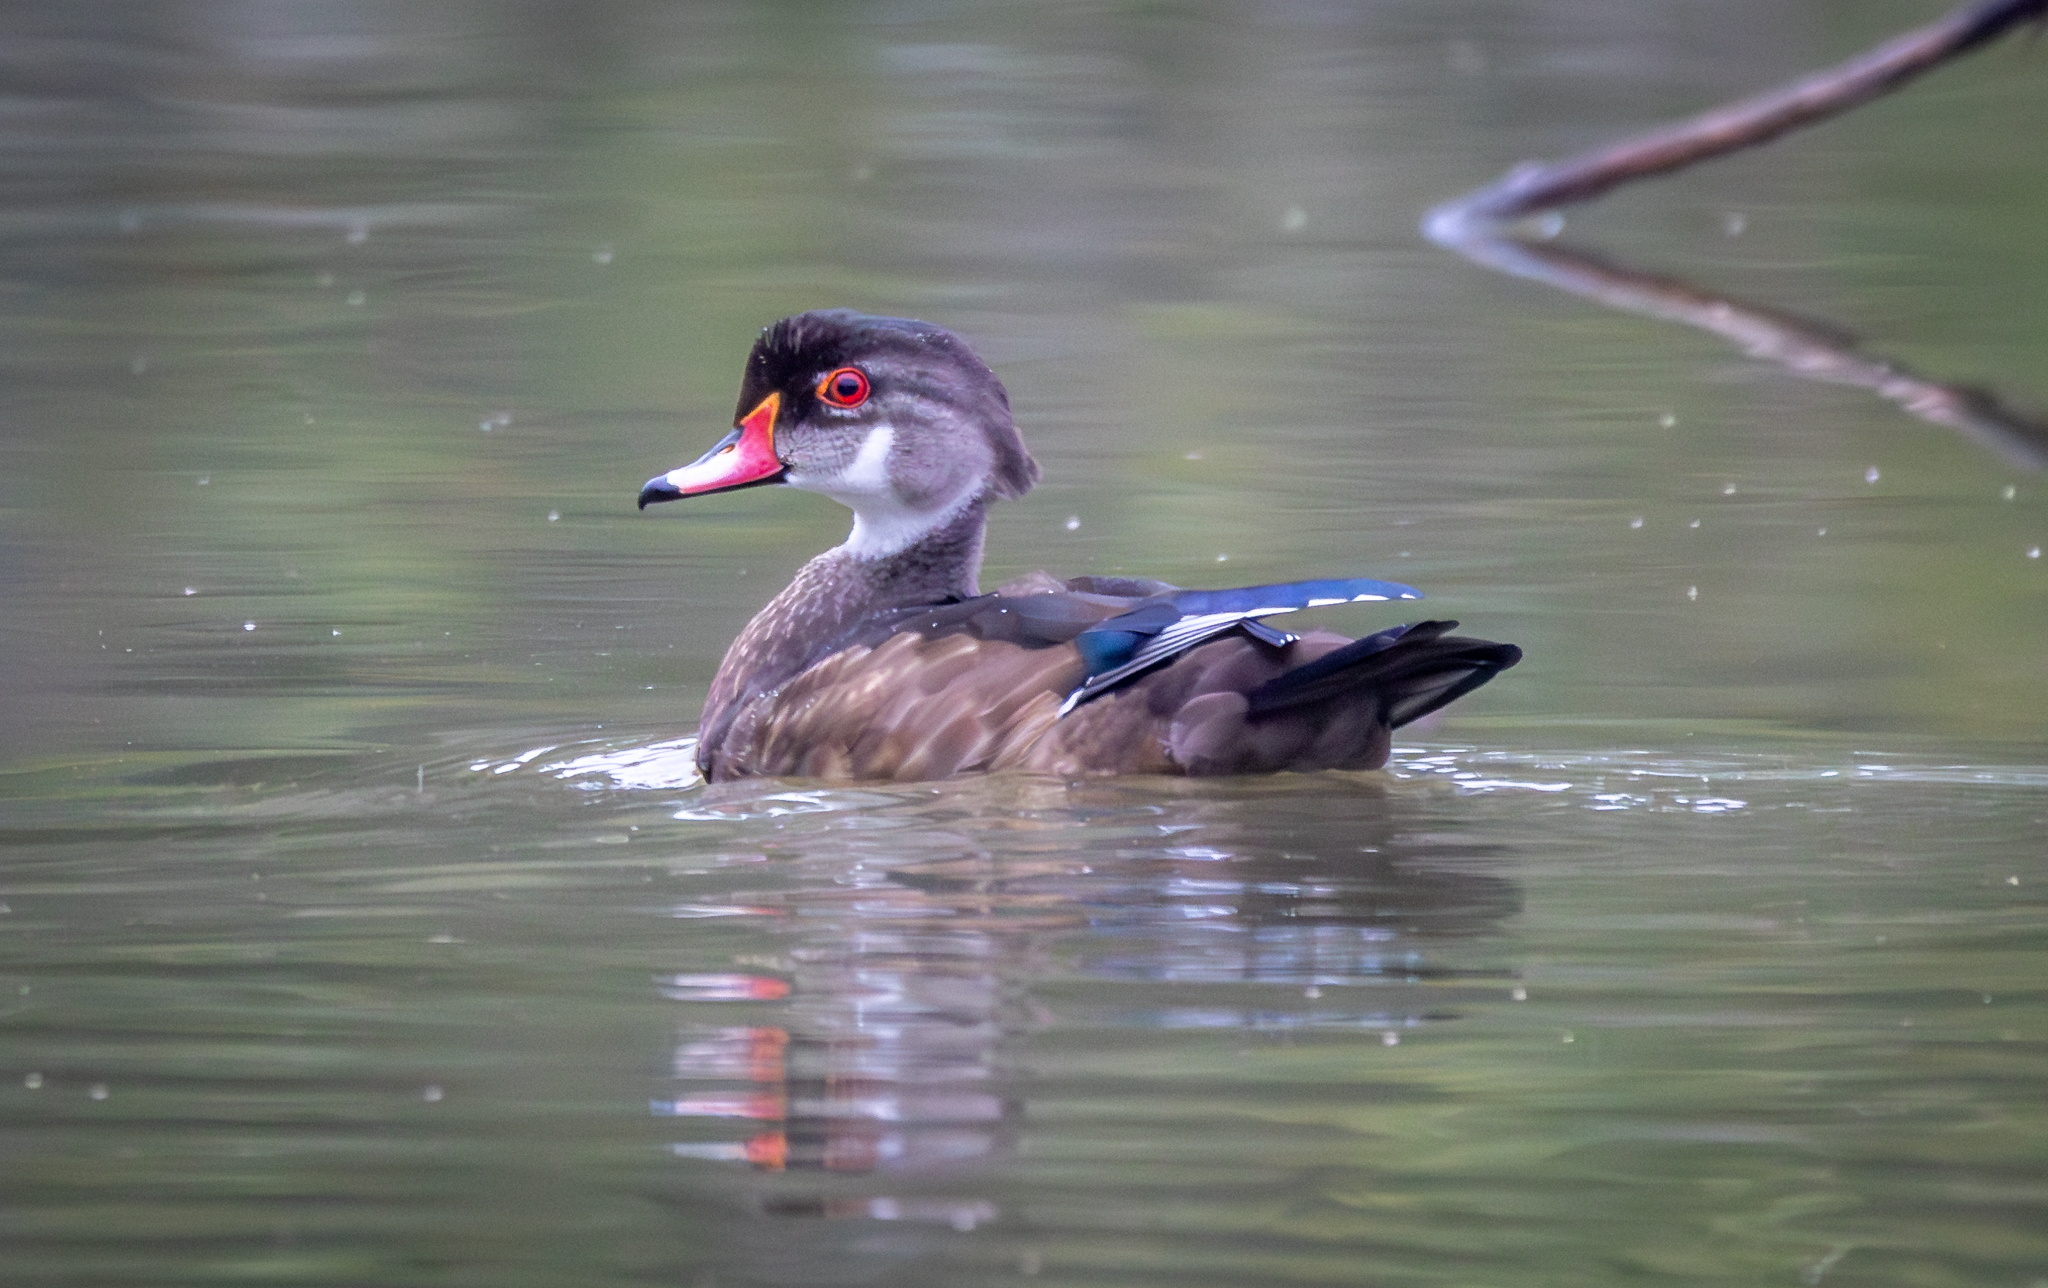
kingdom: Animalia
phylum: Chordata
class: Aves
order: Anseriformes
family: Anatidae
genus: Aix
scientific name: Aix sponsa
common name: Wood duck
